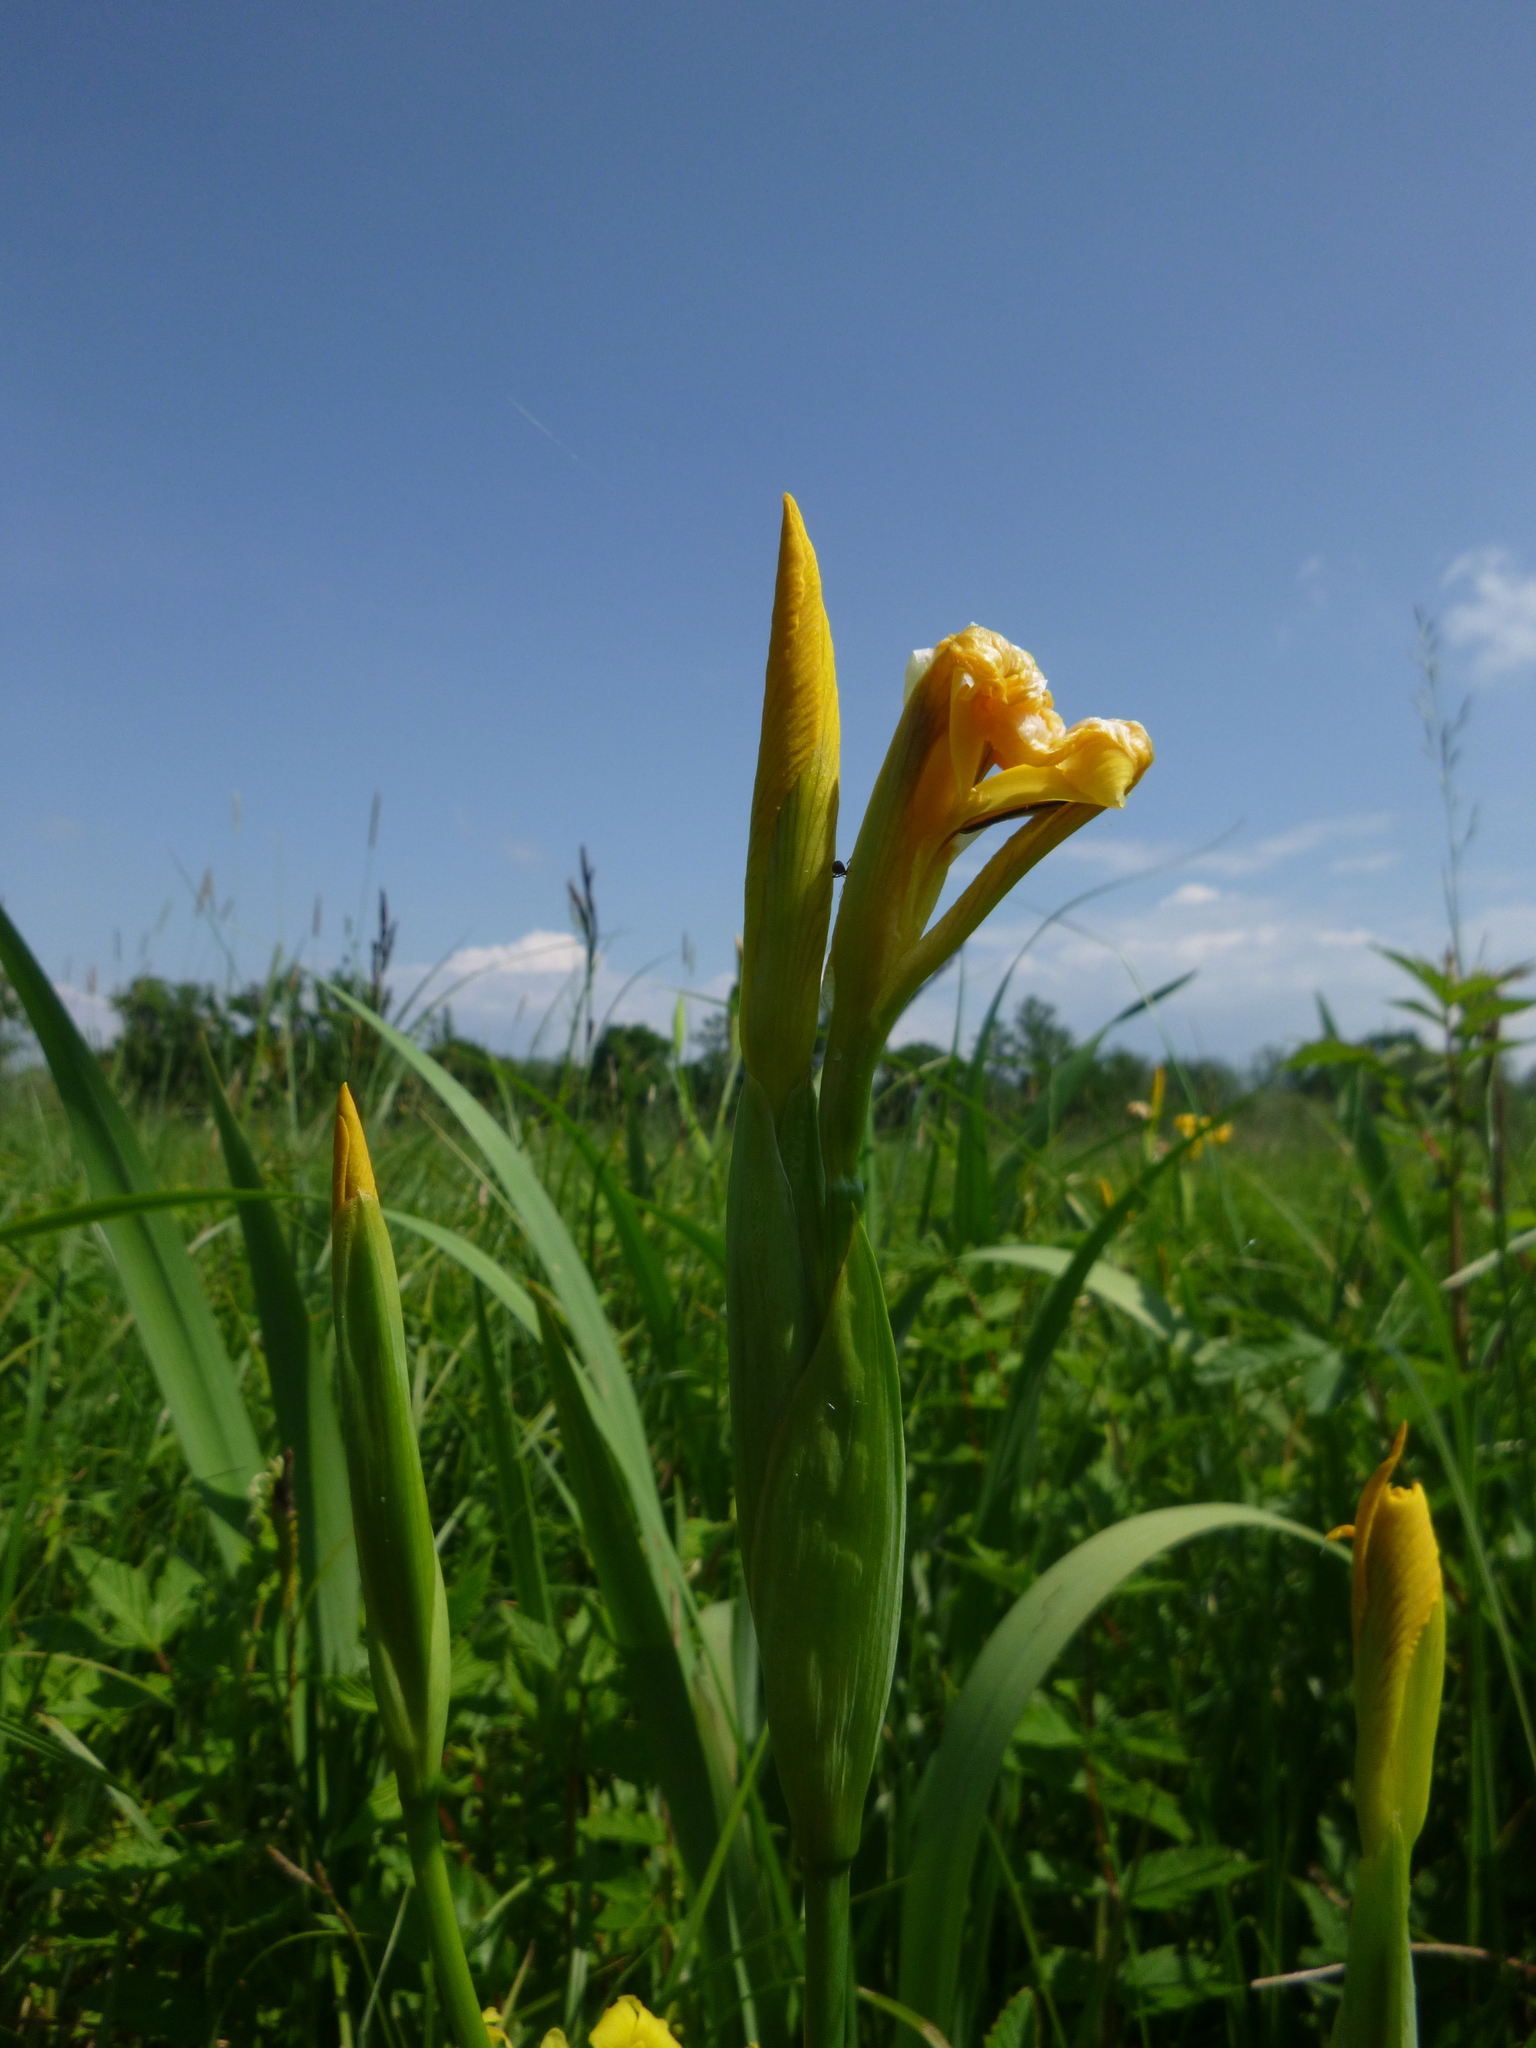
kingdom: Plantae
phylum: Tracheophyta
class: Liliopsida
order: Asparagales
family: Iridaceae
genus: Iris
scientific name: Iris pseudacorus
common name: Yellow flag
